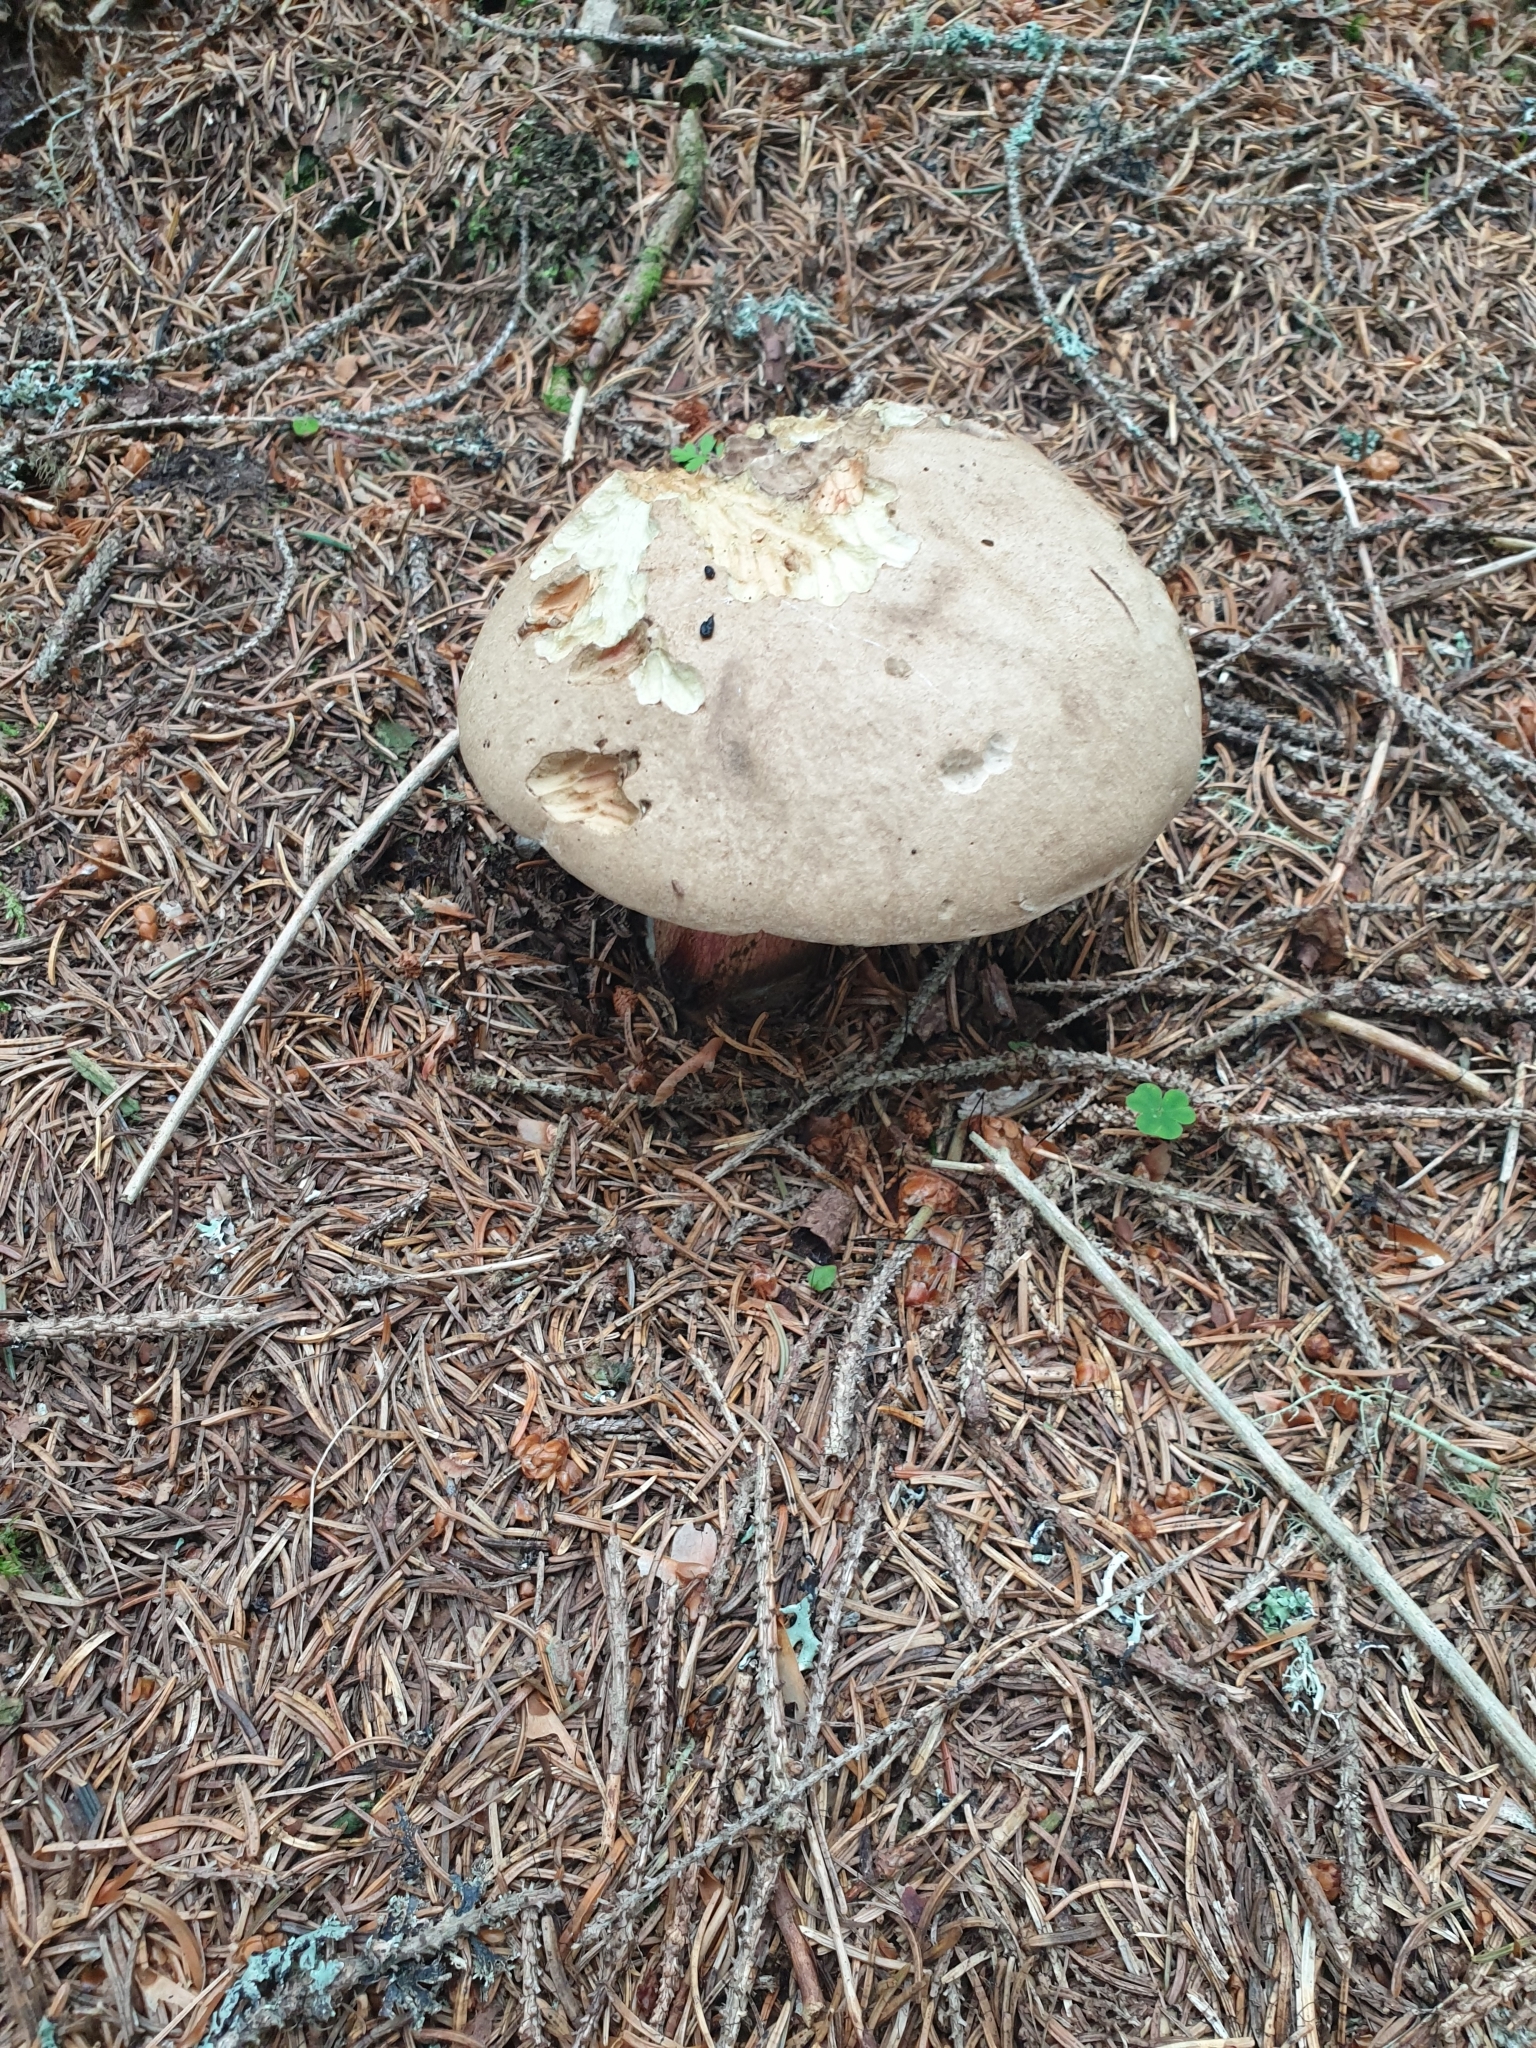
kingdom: Fungi
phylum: Basidiomycota
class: Agaricomycetes
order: Boletales
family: Boletaceae
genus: Caloboletus
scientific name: Caloboletus calopus
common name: Bitter beech bolete
